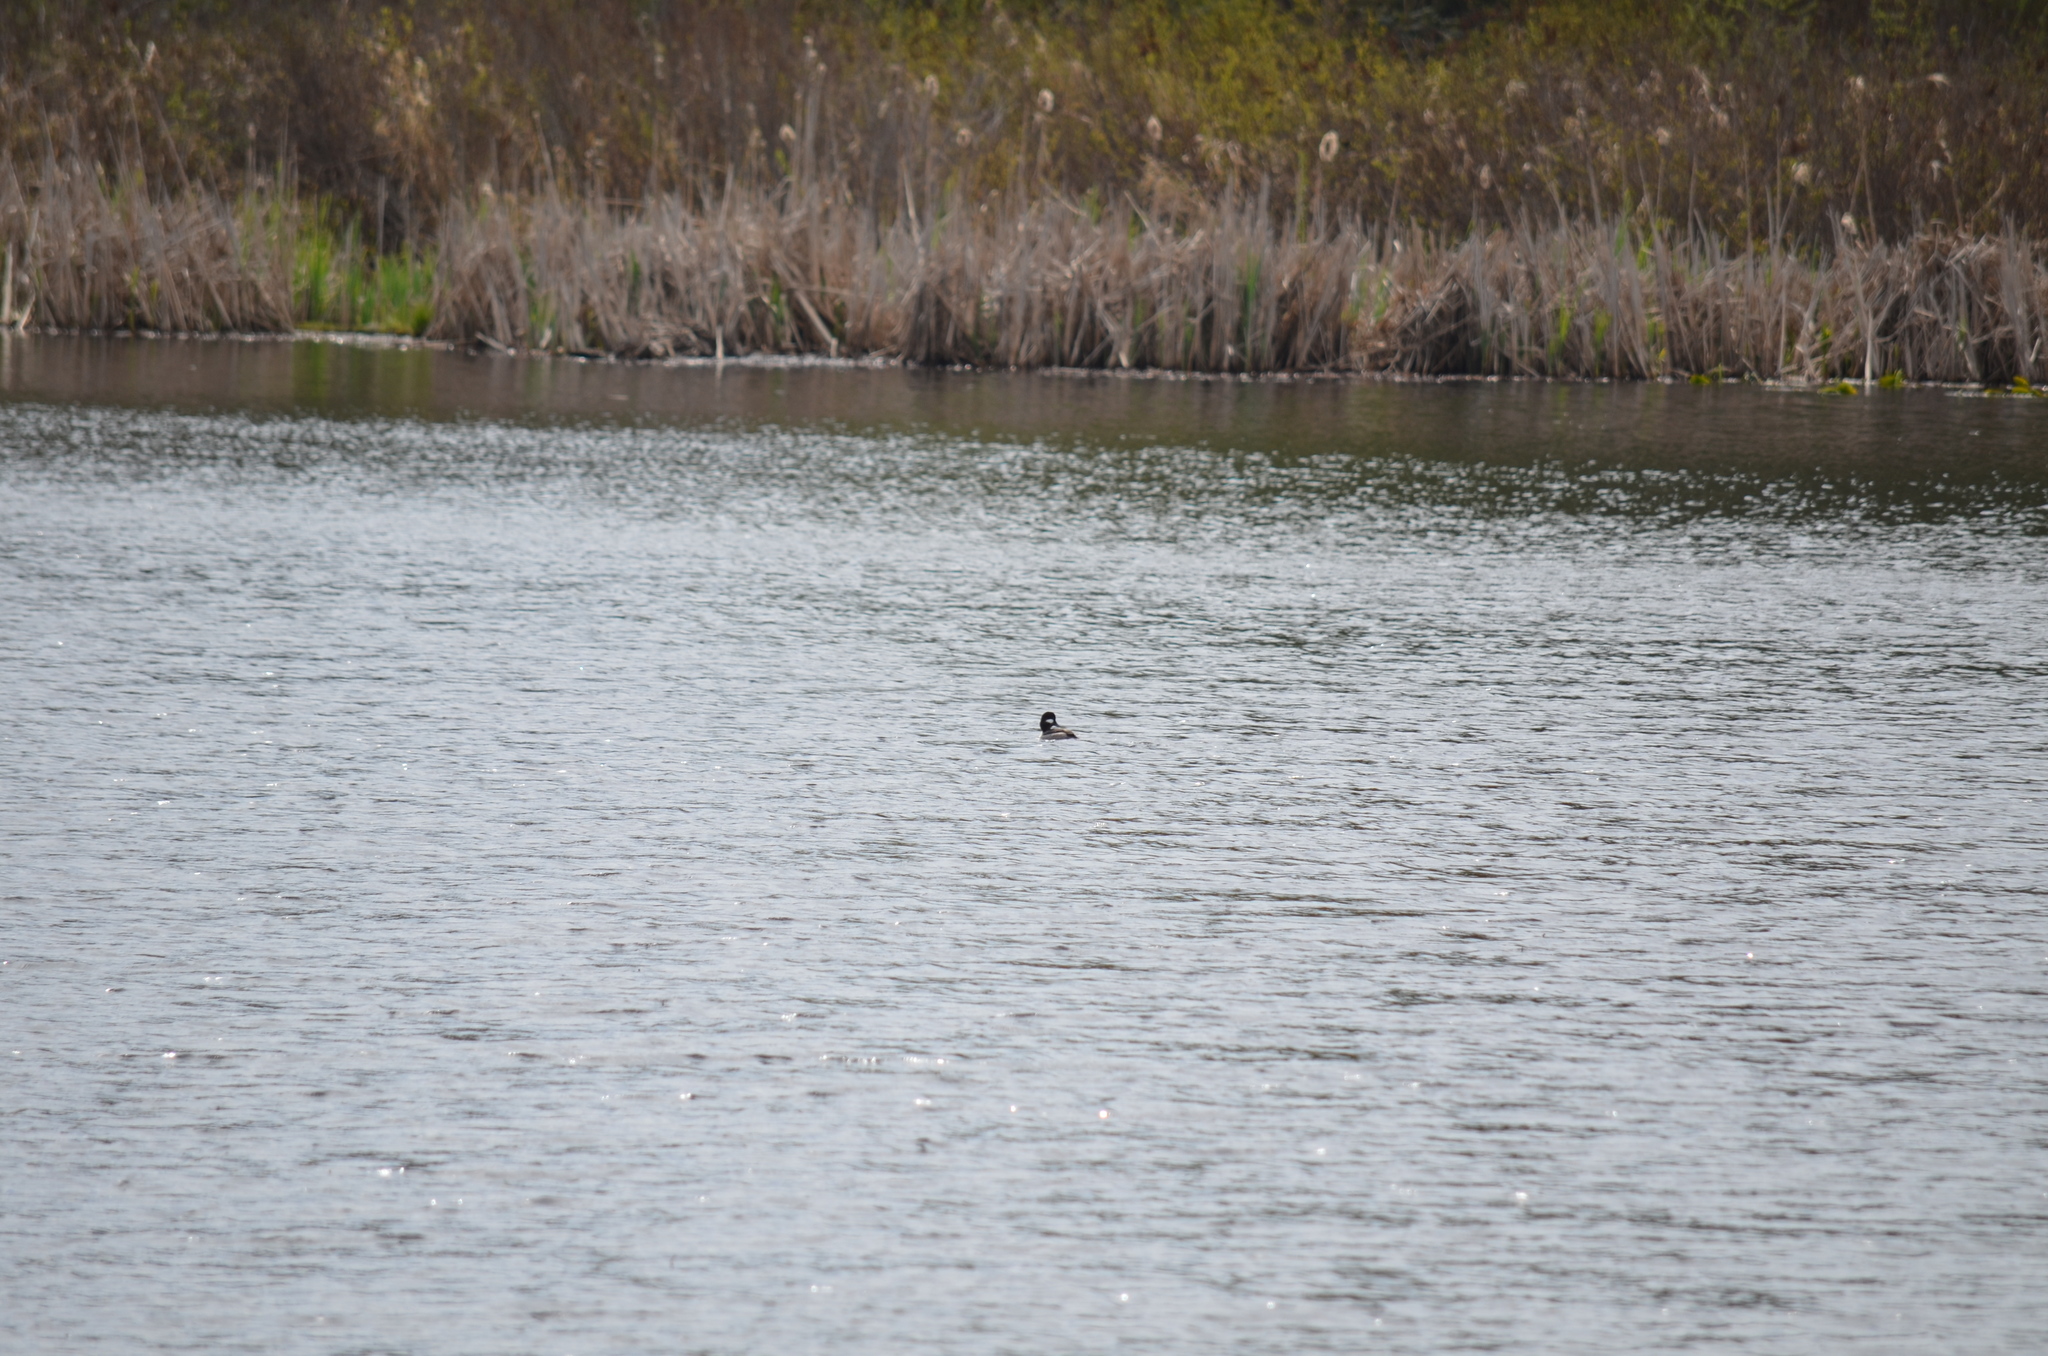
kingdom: Animalia
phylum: Chordata
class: Aves
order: Anseriformes
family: Anatidae
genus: Bucephala
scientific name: Bucephala albeola
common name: Bufflehead
